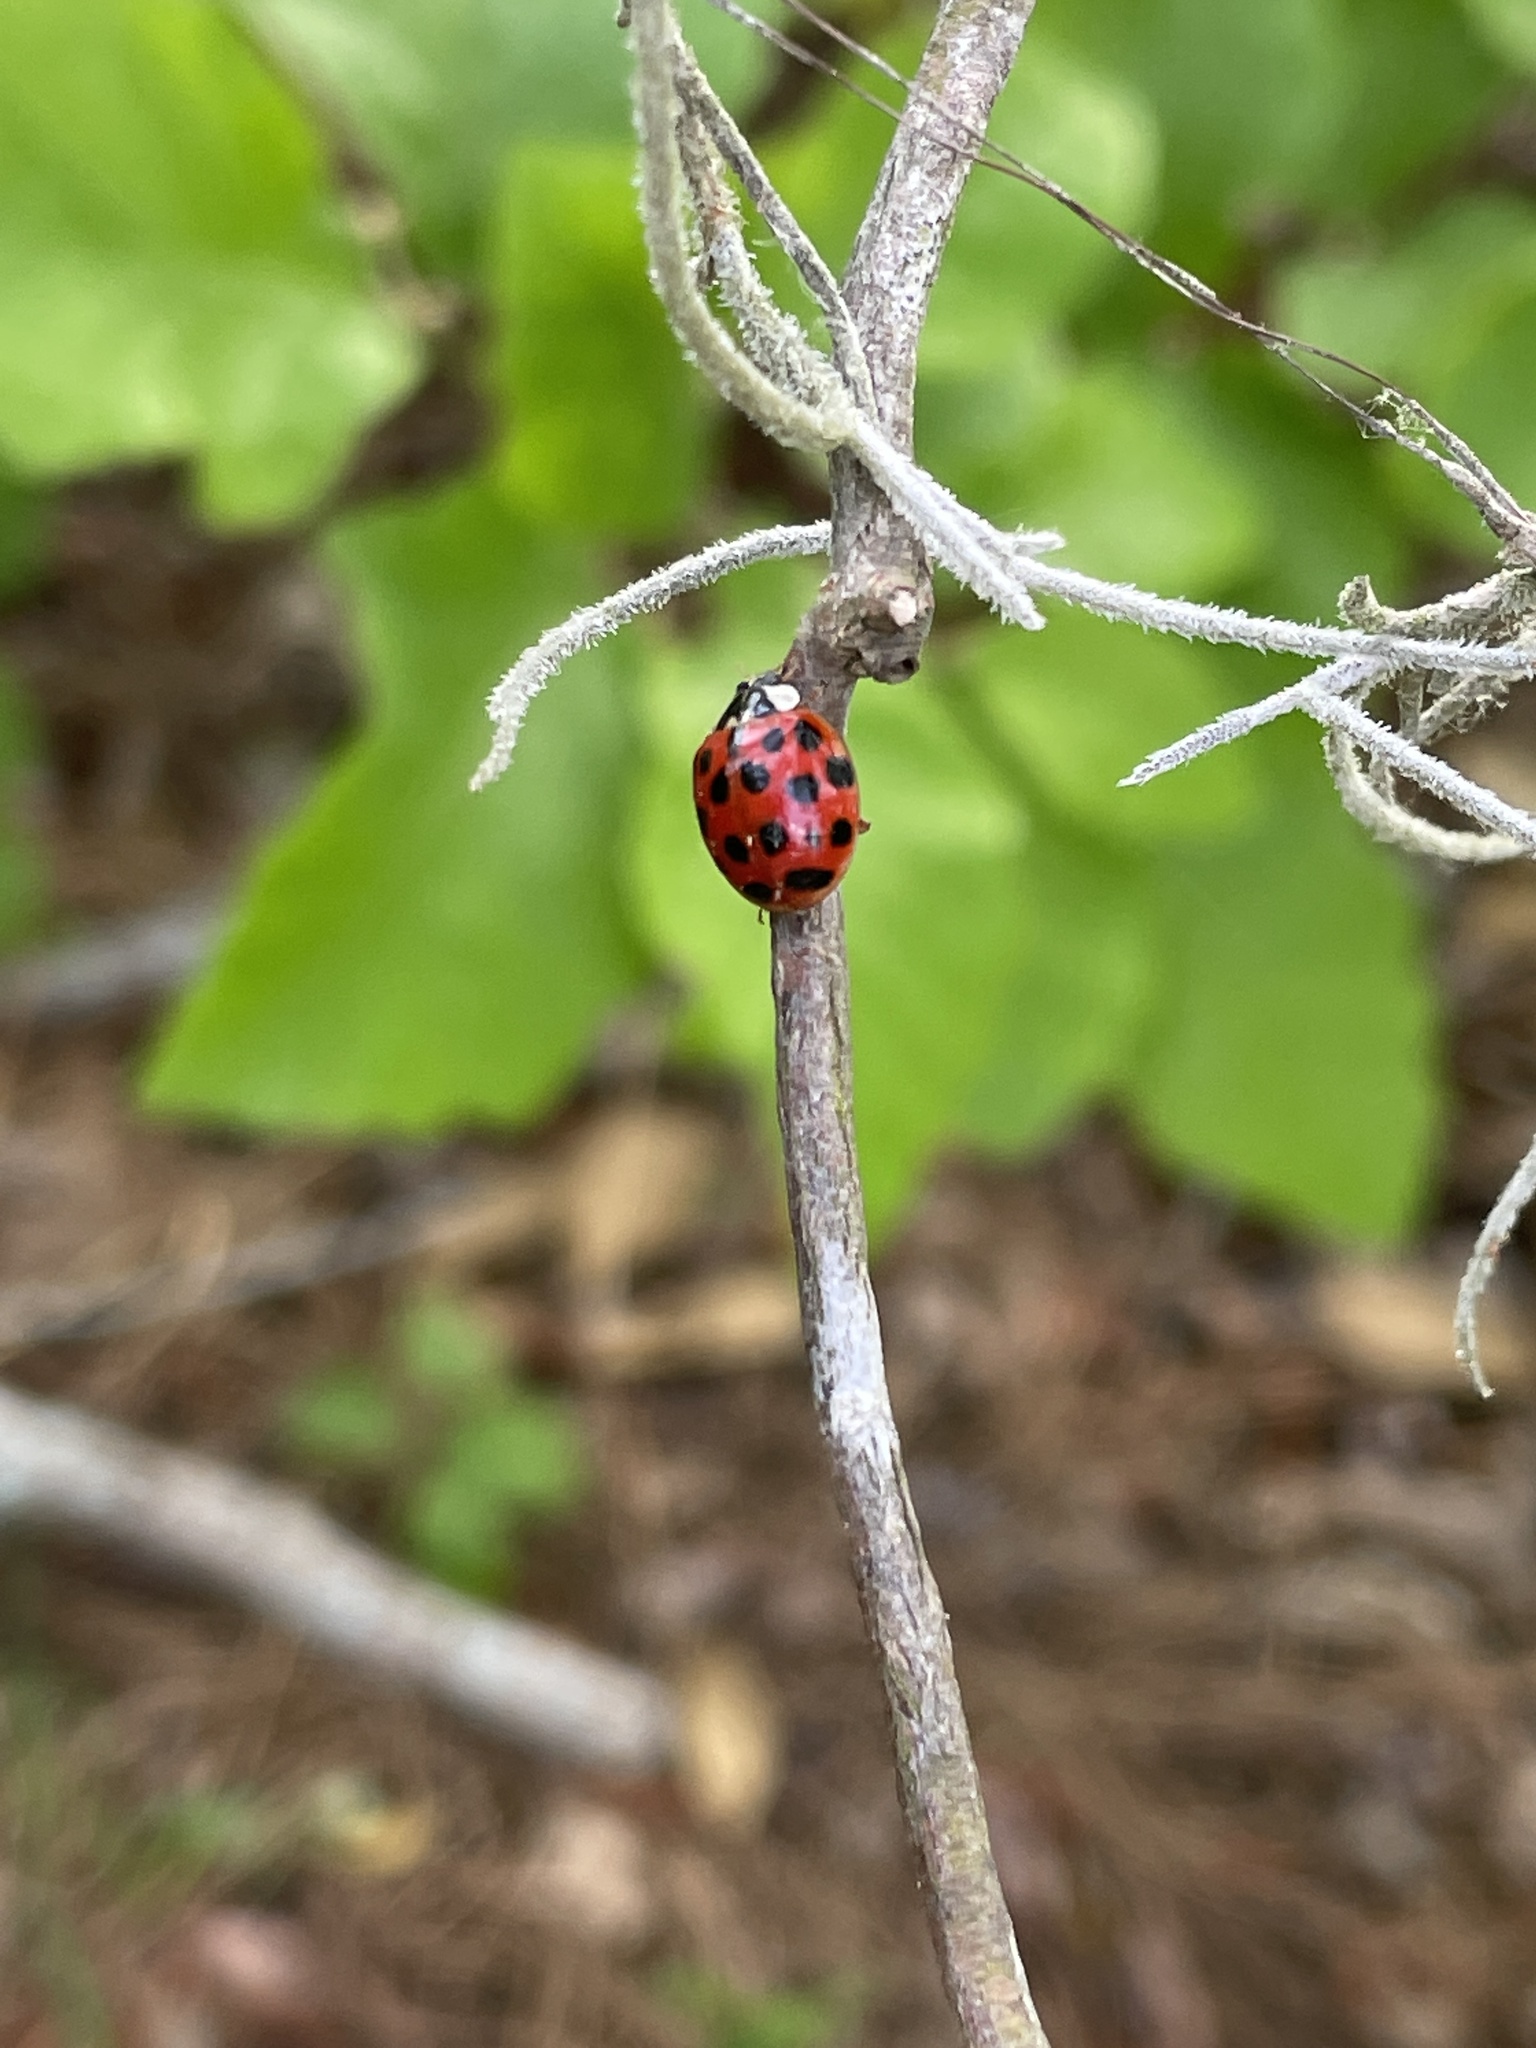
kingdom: Animalia
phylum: Arthropoda
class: Insecta
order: Coleoptera
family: Coccinellidae
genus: Harmonia
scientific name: Harmonia axyridis
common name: Harlequin ladybird
